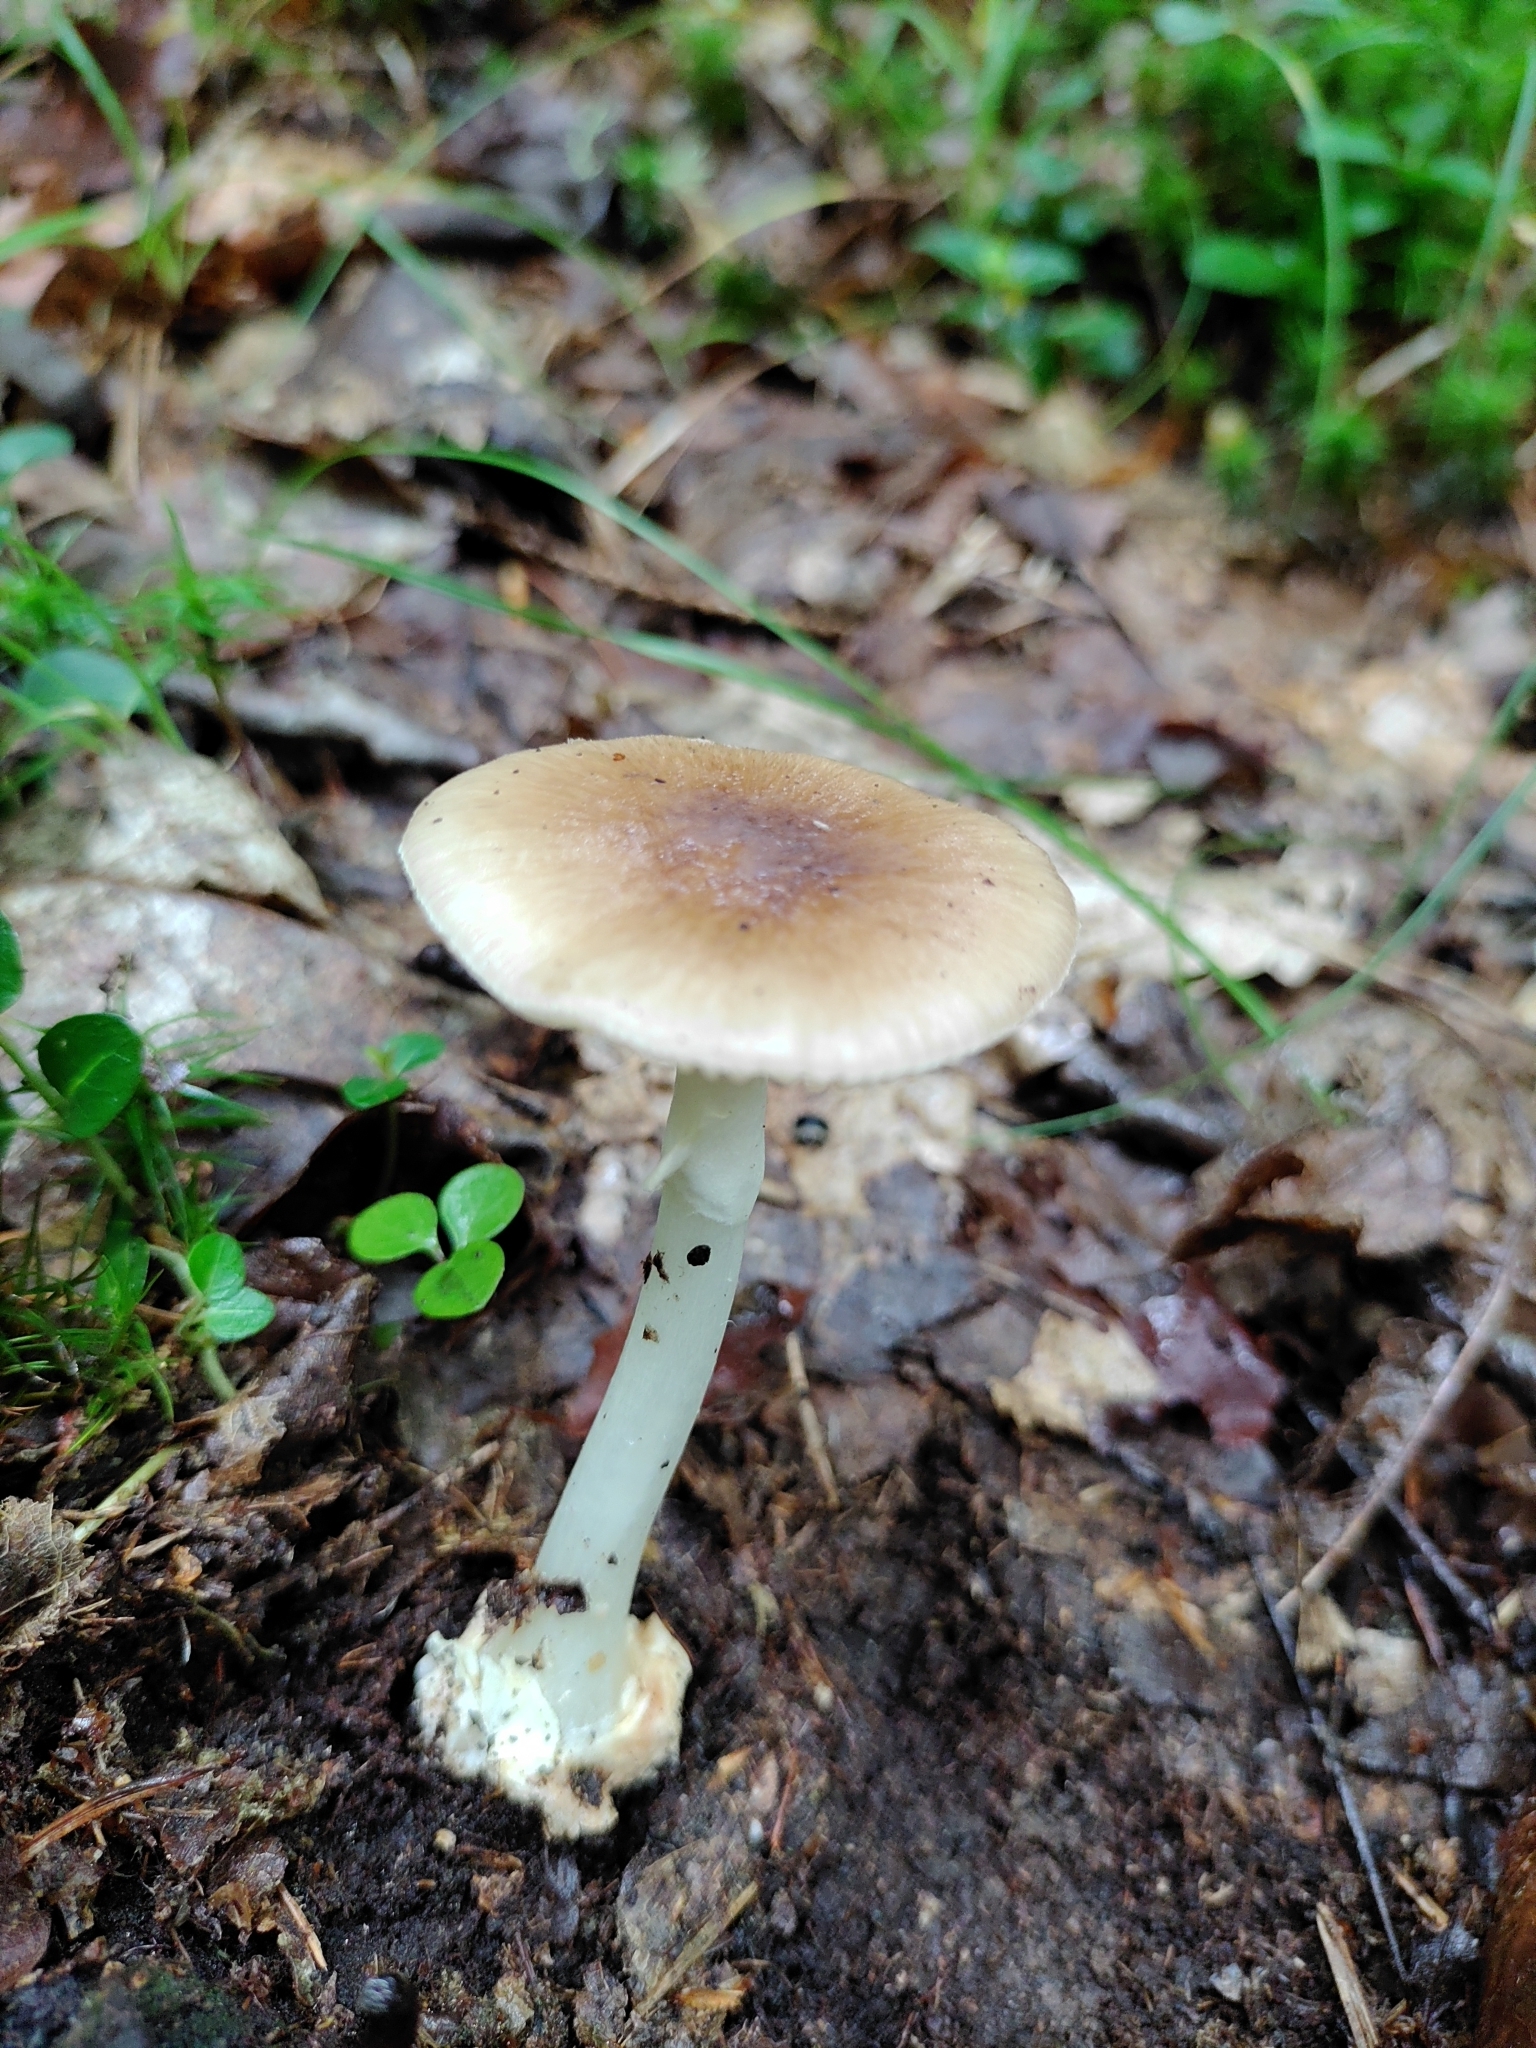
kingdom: Fungi
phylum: Basidiomycota
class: Agaricomycetes
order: Agaricales
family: Amanitaceae
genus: Amanita
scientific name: Amanita solaniolens
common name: Old potato amanita
